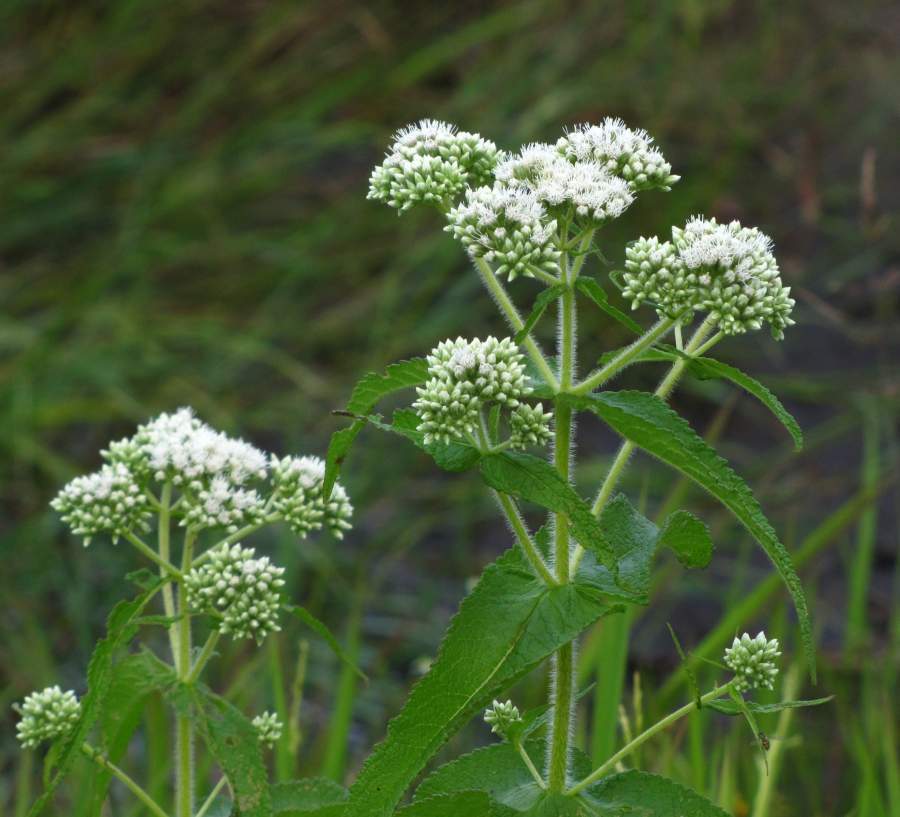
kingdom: Plantae
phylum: Tracheophyta
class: Magnoliopsida
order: Asterales
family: Asteraceae
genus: Eupatorium
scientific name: Eupatorium perfoliatum
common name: Boneset
